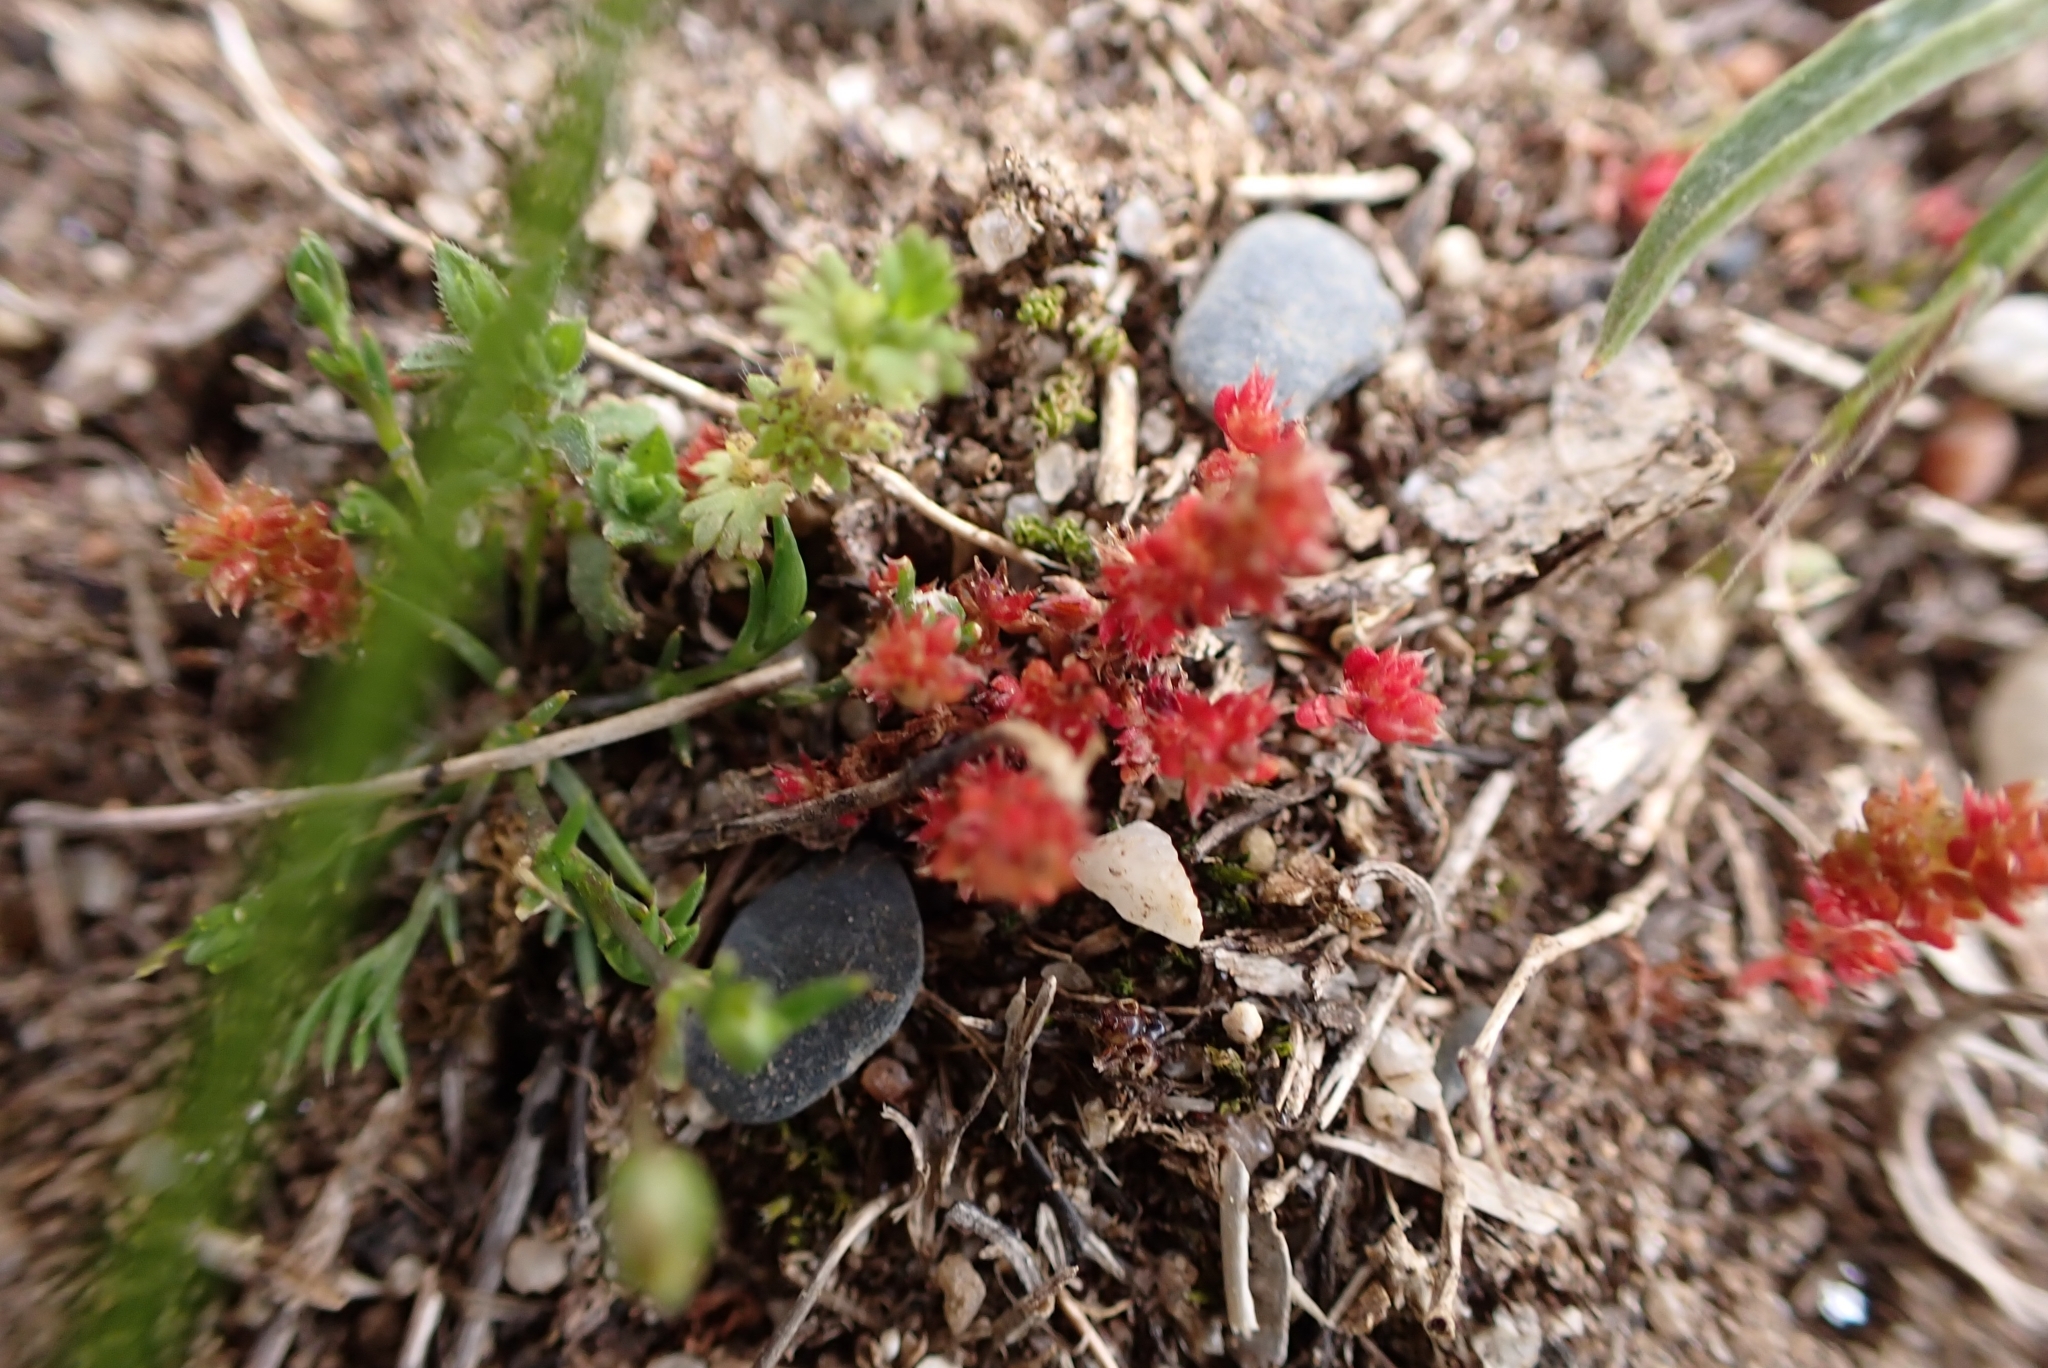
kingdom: Plantae
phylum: Tracheophyta
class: Magnoliopsida
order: Saxifragales
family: Crassulaceae
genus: Crassula
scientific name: Crassula tillaea
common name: Mossy stonecrop
